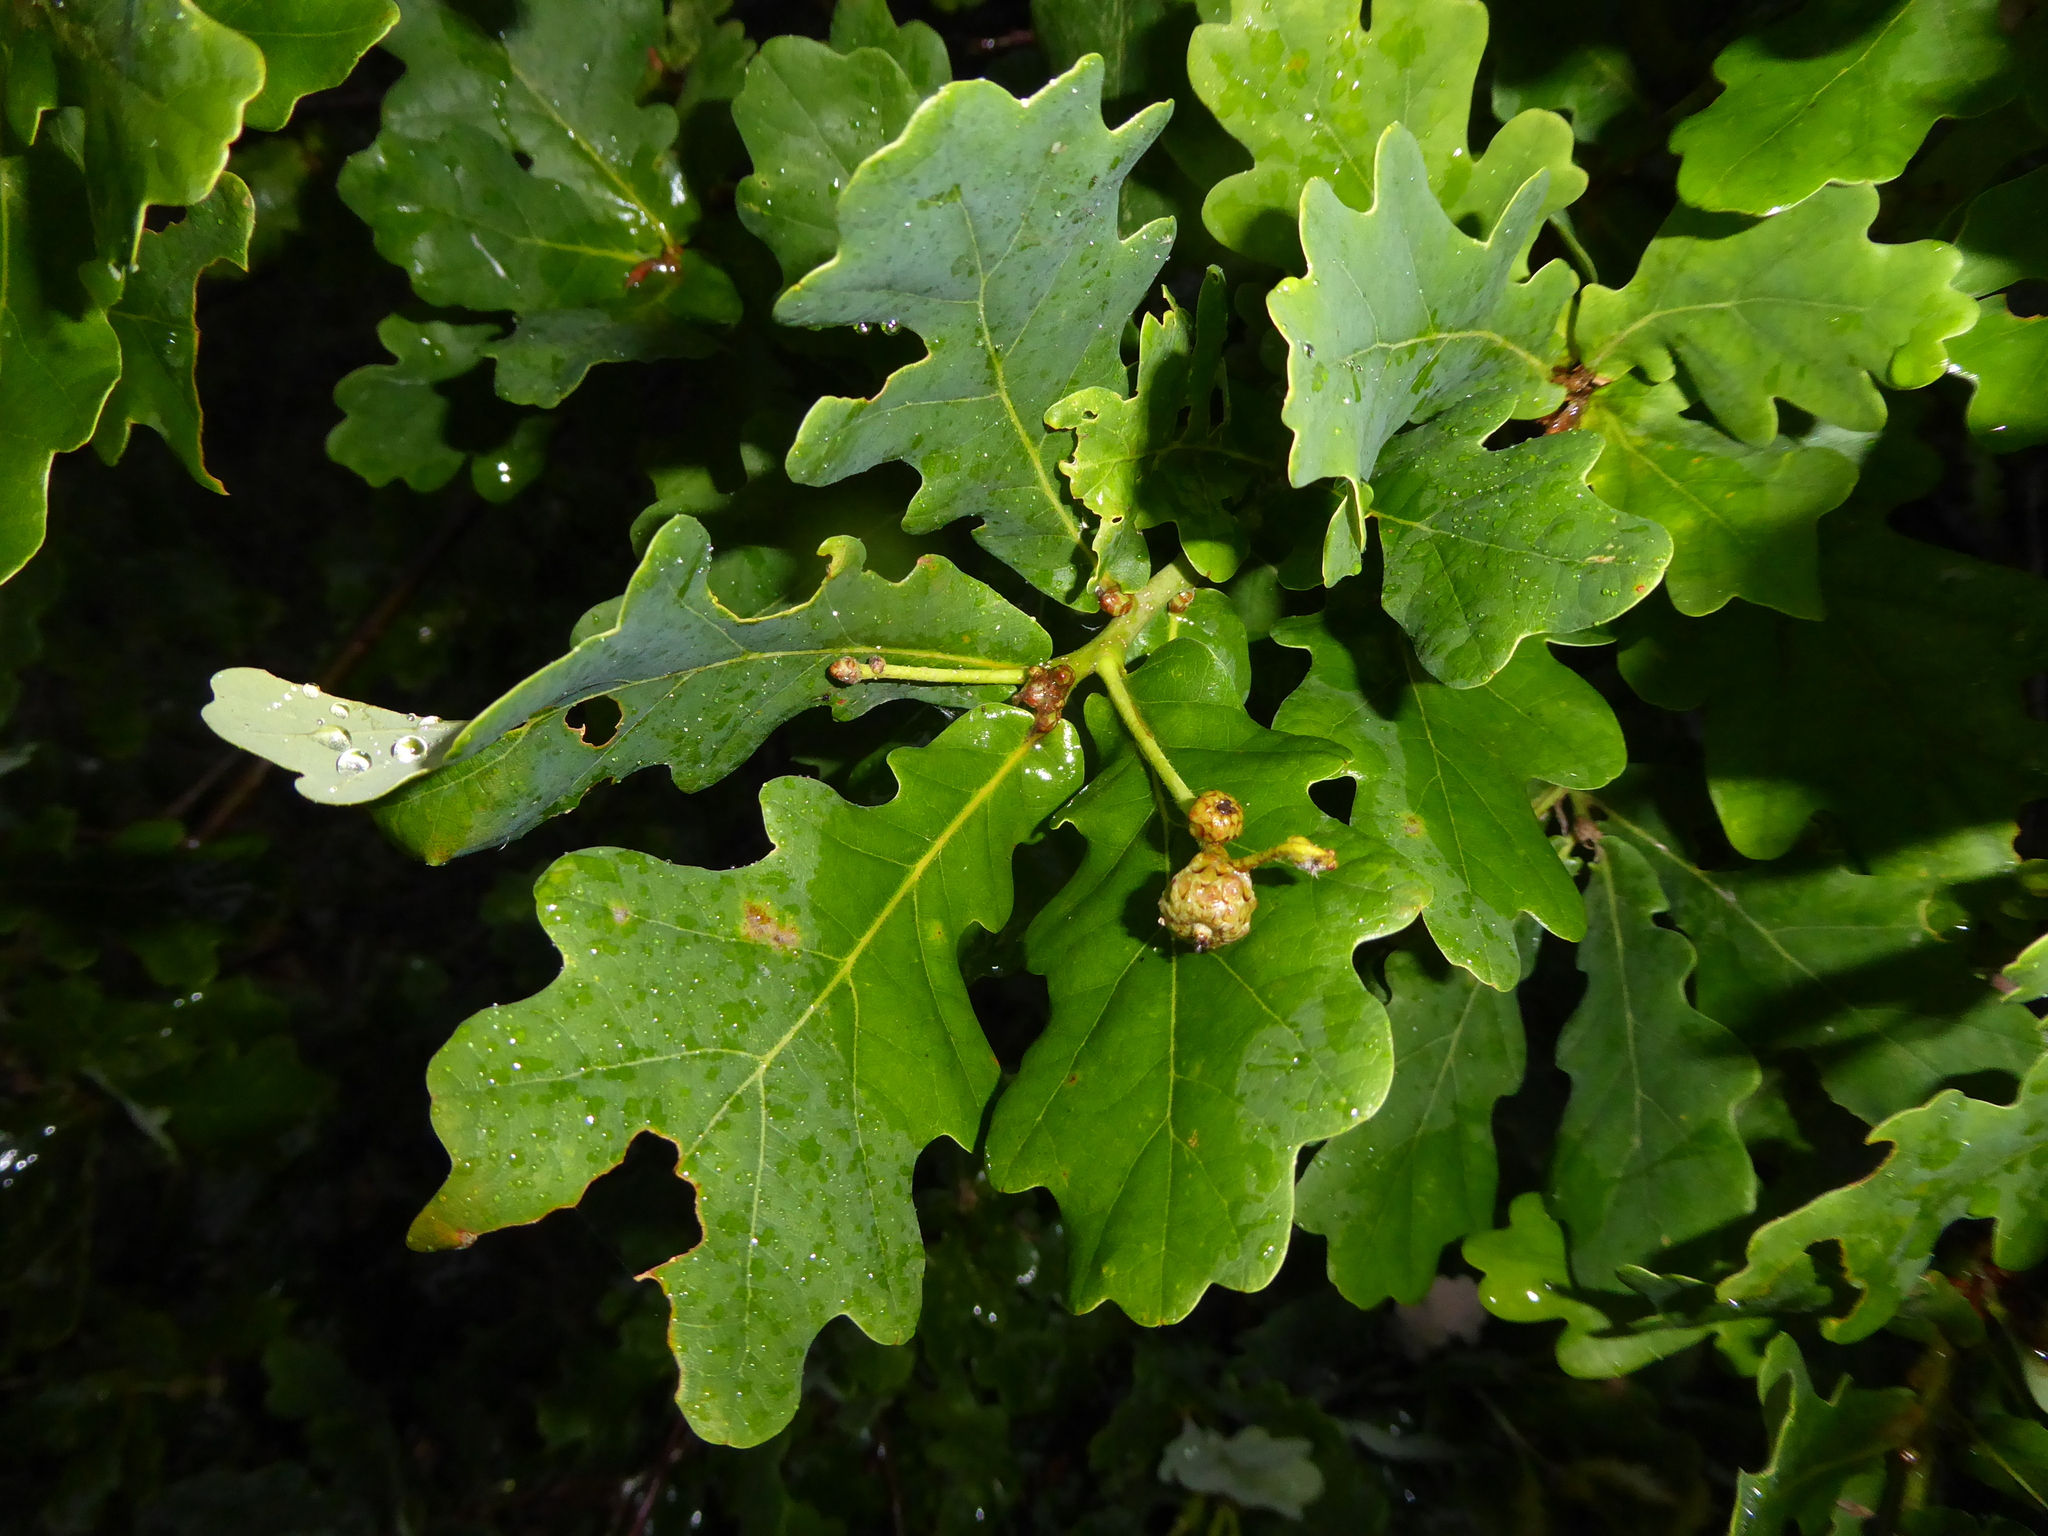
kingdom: Plantae
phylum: Tracheophyta
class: Magnoliopsida
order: Fagales
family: Fagaceae
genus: Quercus
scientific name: Quercus robur
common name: Pedunculate oak
